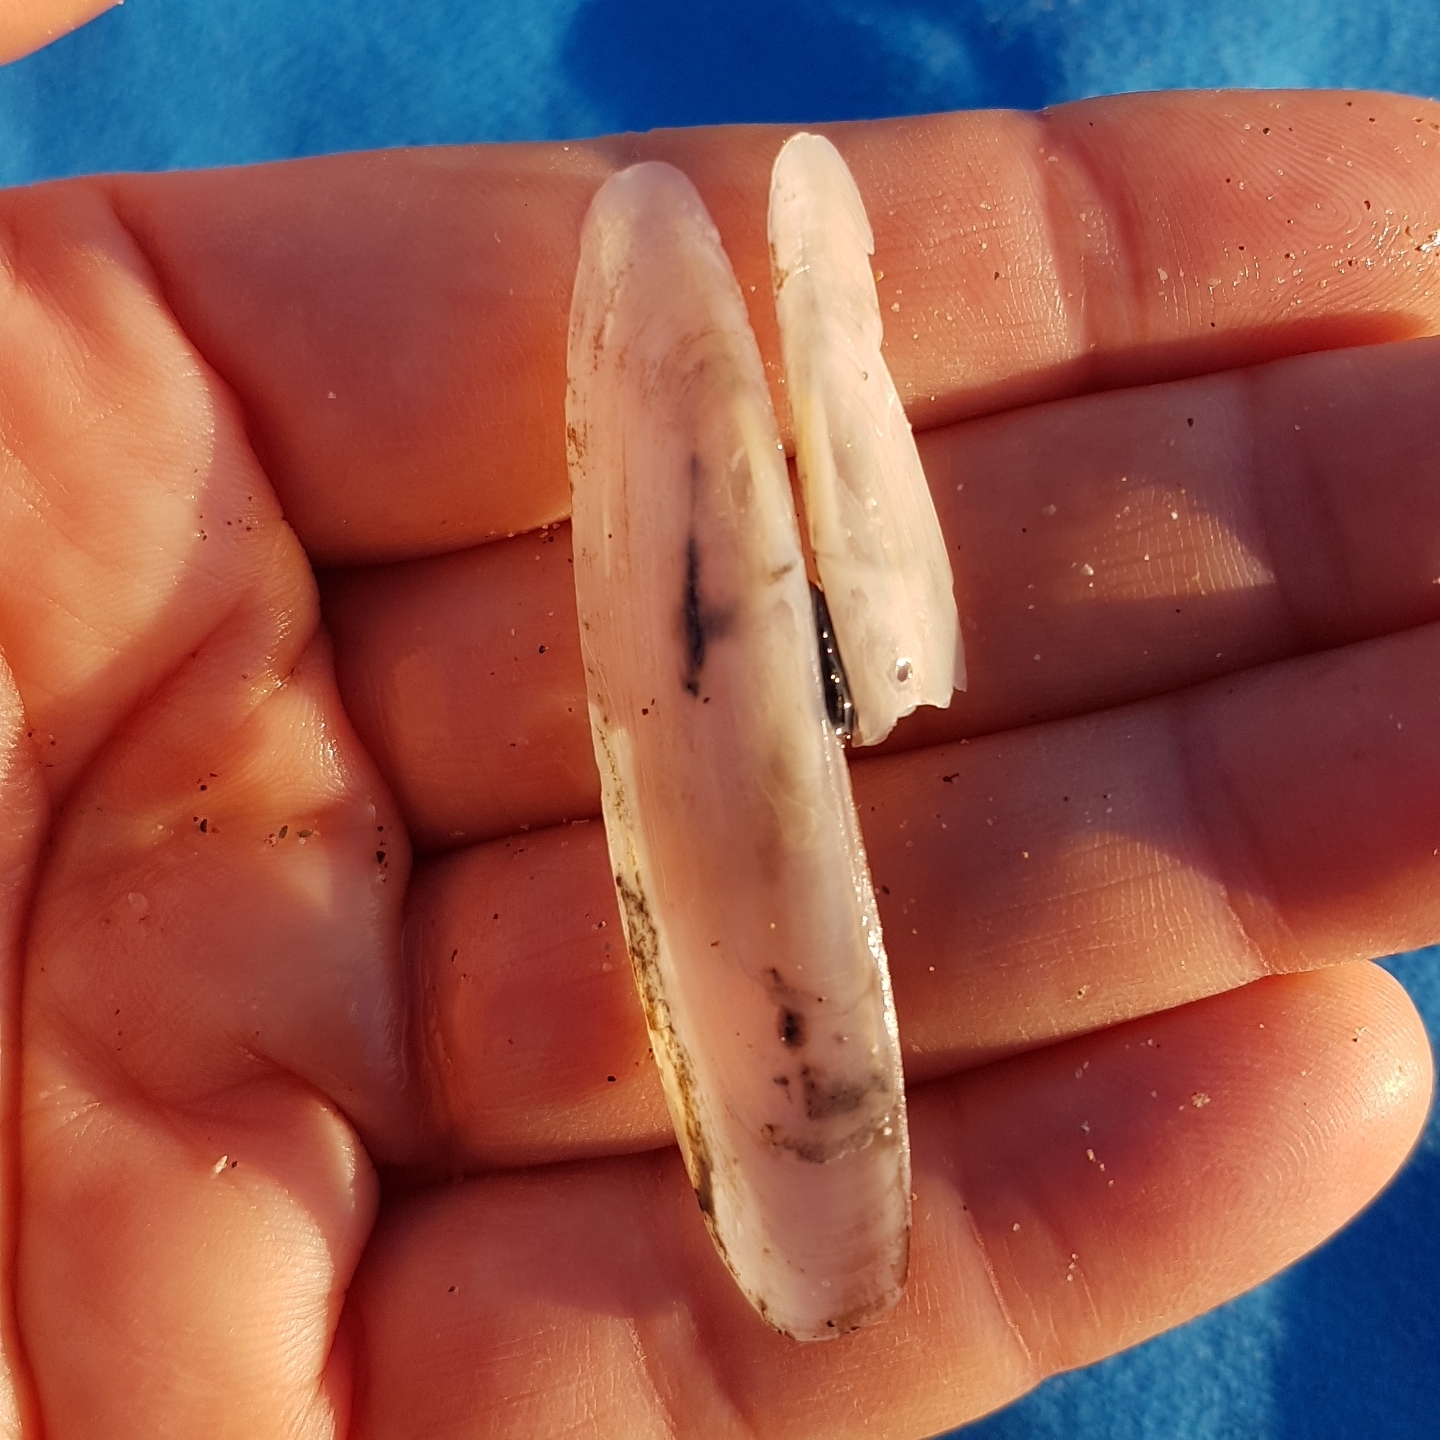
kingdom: Animalia
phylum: Mollusca
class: Bivalvia
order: Adapedonta
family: Pharidae
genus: Pharus
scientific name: Pharus legumen
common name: Bean razor clam
